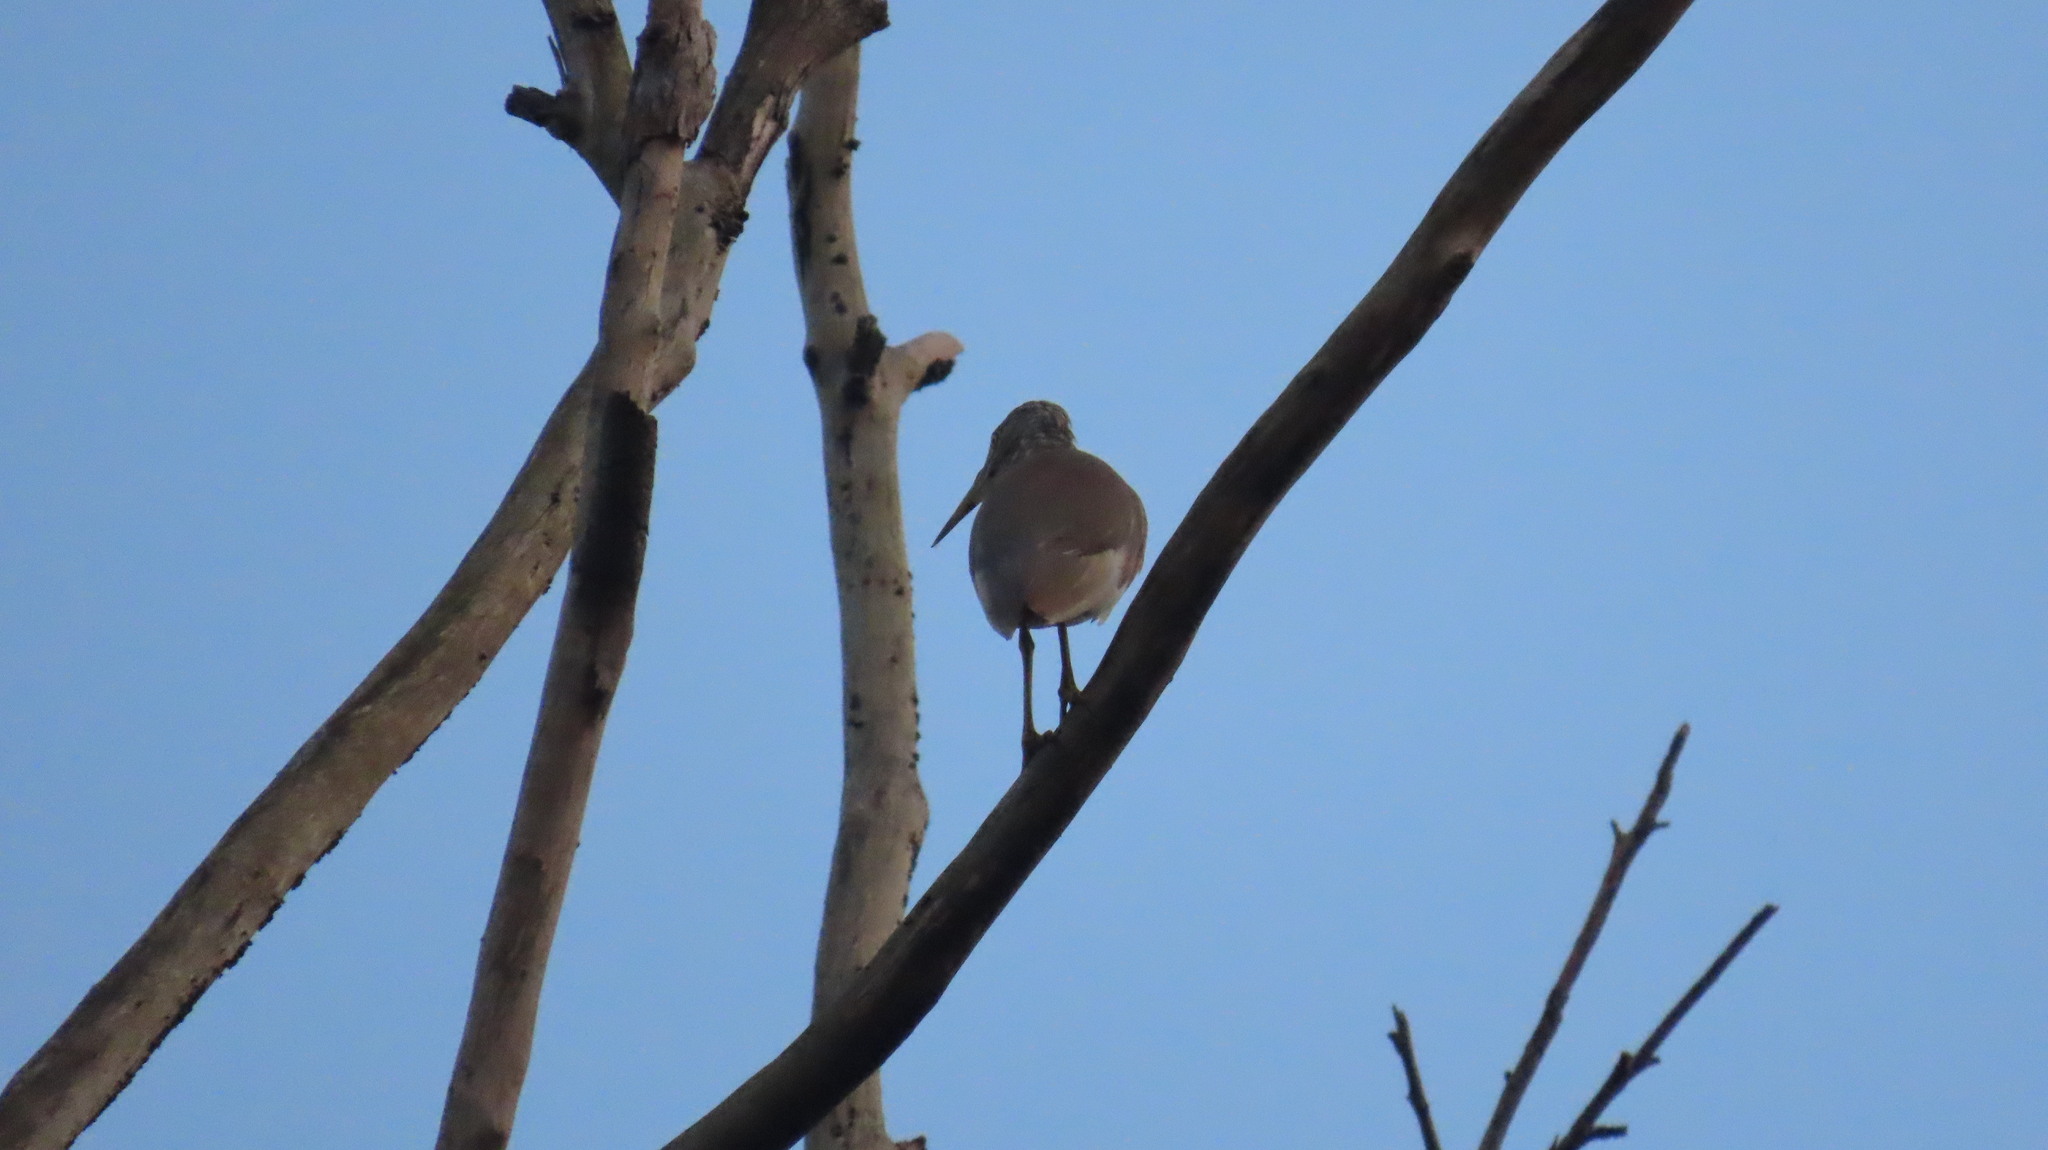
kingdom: Animalia
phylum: Chordata
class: Aves
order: Pelecaniformes
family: Ardeidae
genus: Ardeola
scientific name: Ardeola grayii
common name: Indian pond heron
